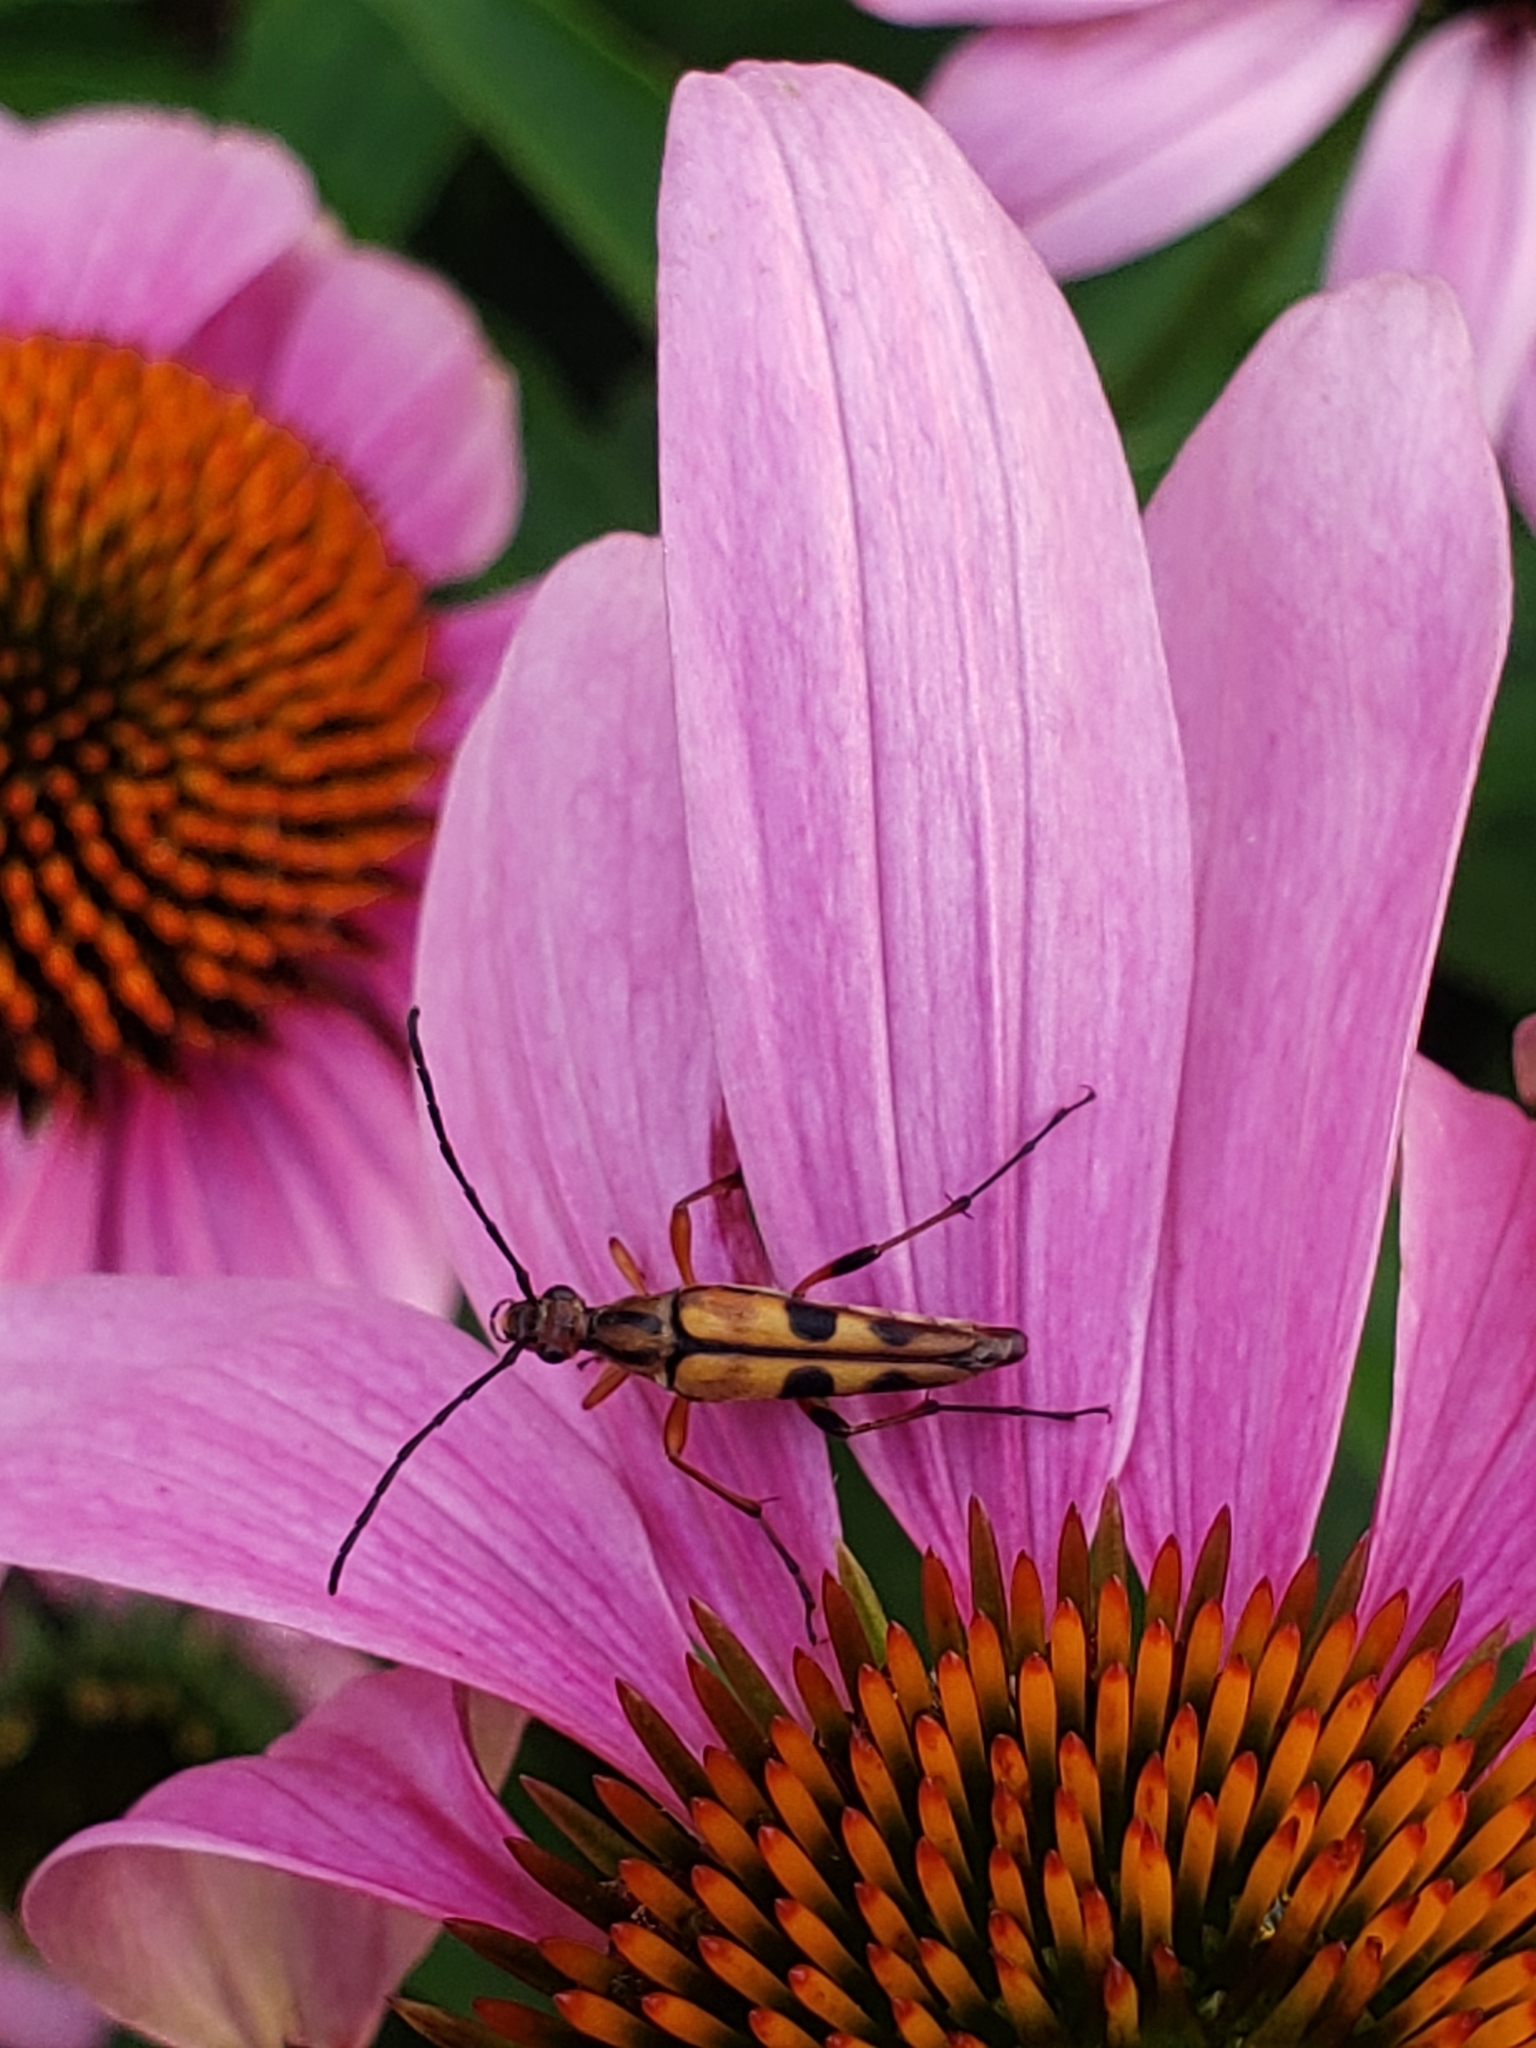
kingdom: Animalia
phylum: Arthropoda
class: Insecta
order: Coleoptera
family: Cerambycidae
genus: Strangalia
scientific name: Strangalia famelica
